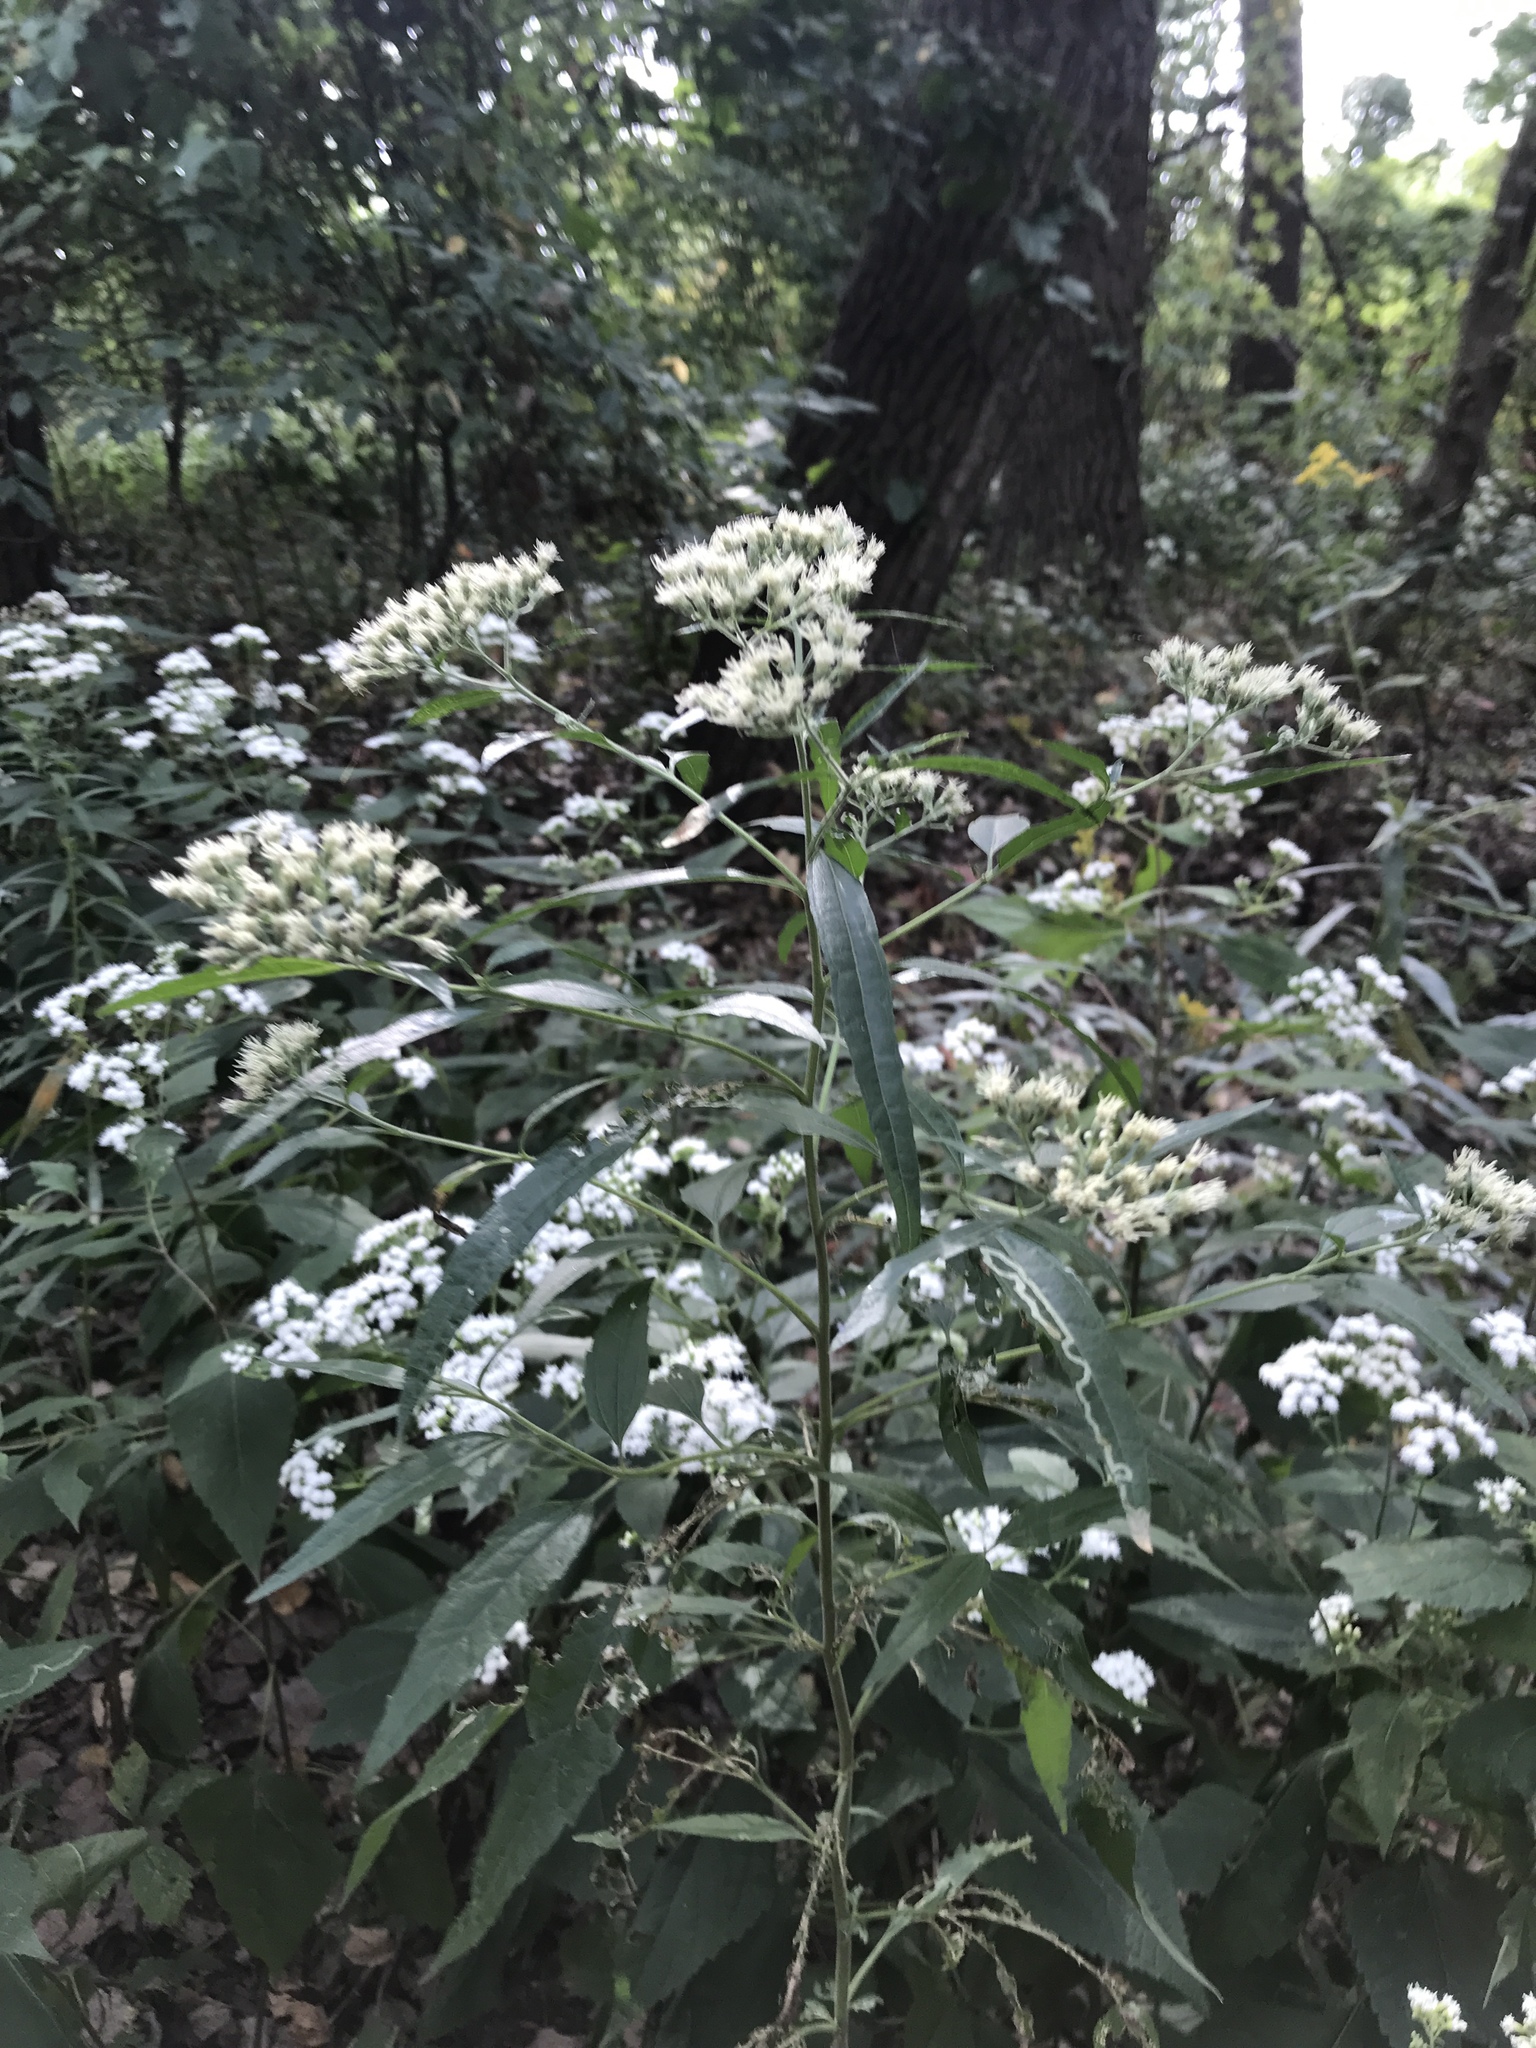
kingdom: Plantae
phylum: Tracheophyta
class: Magnoliopsida
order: Asterales
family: Asteraceae
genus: Eupatorium
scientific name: Eupatorium serotinum
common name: Late boneset
